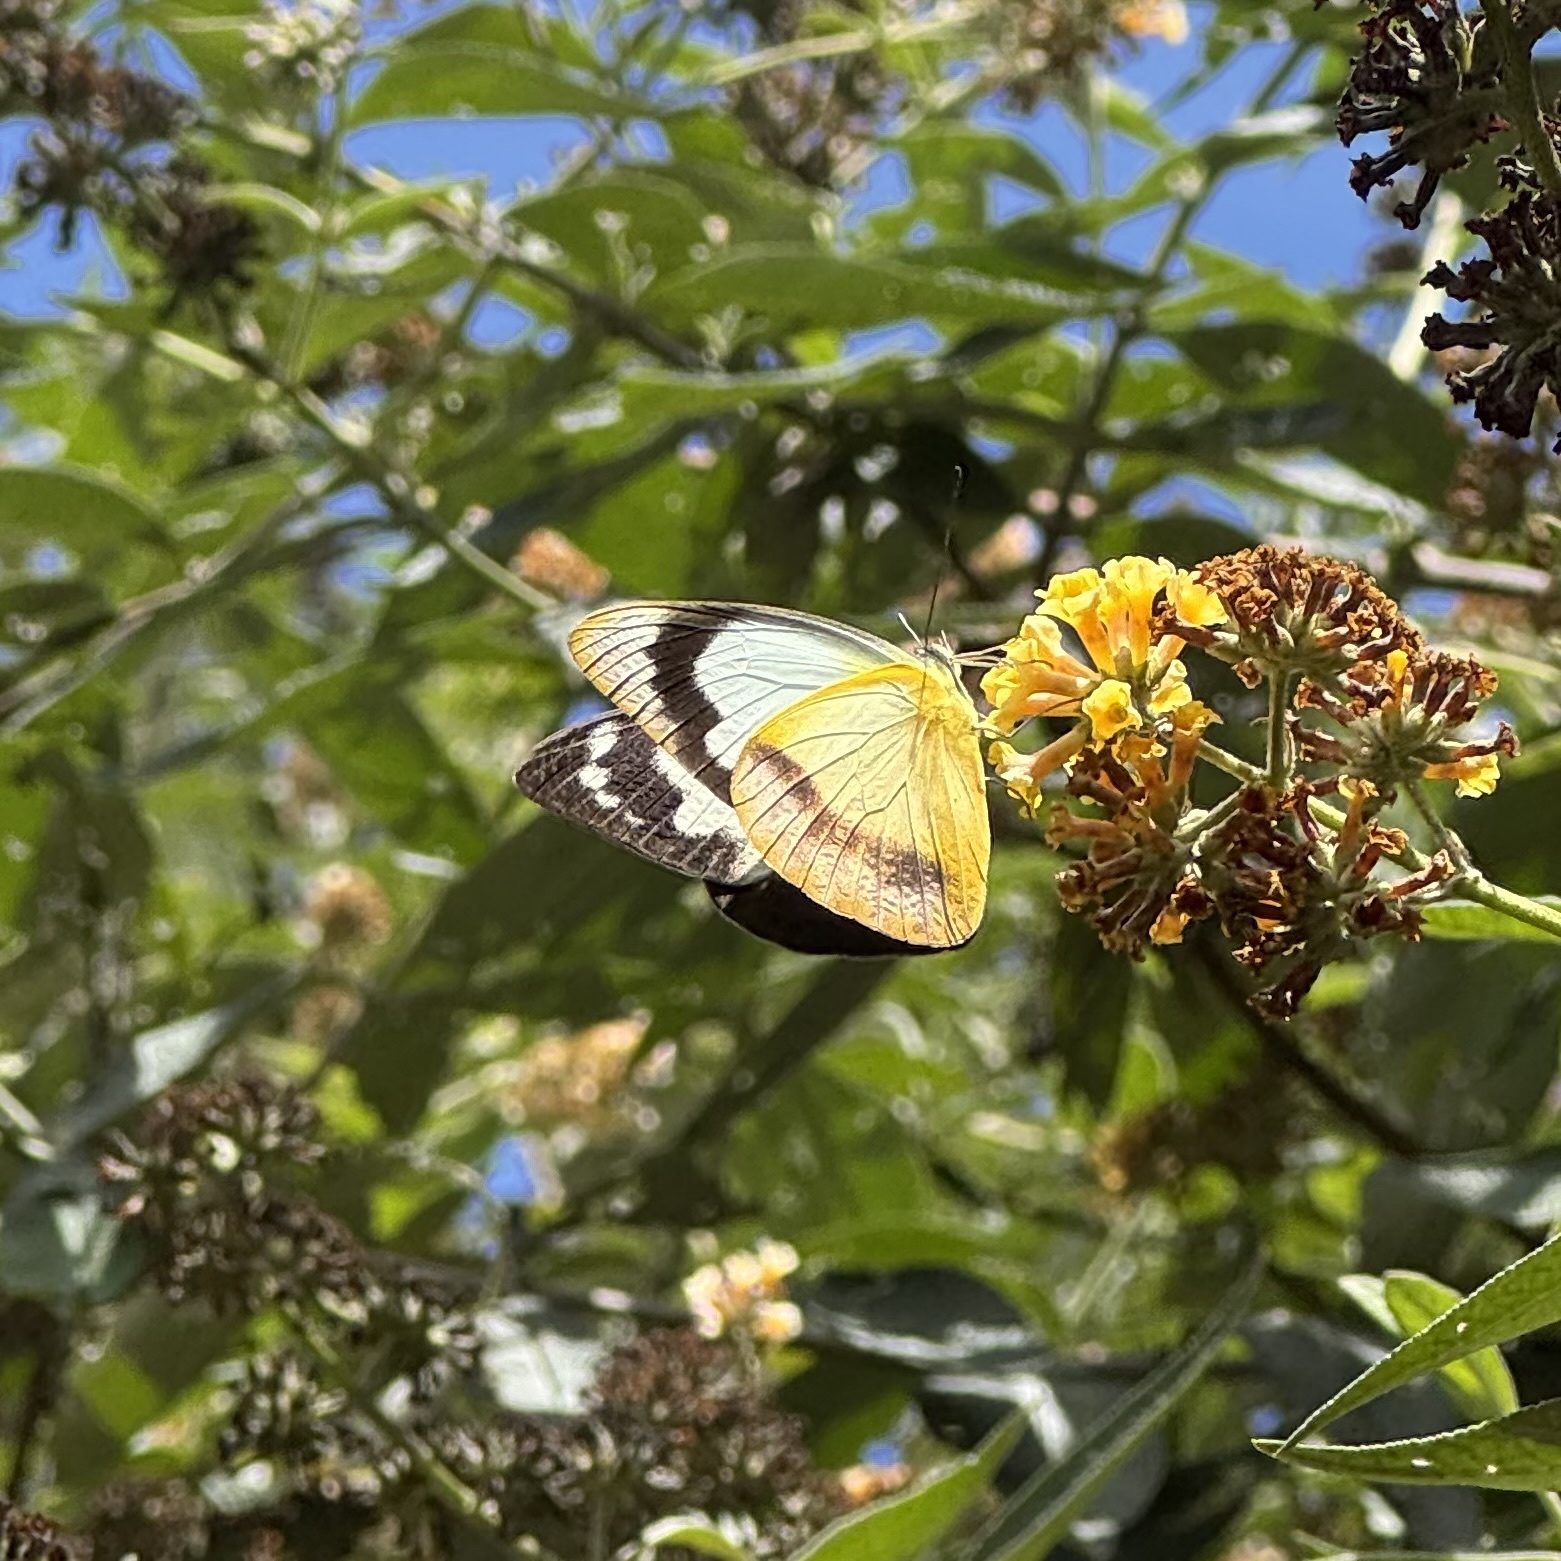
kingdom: Animalia
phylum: Arthropoda
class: Insecta
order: Lepidoptera
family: Pieridae
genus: Appias
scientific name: Appias paulina
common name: Ceylon lesser albatross
